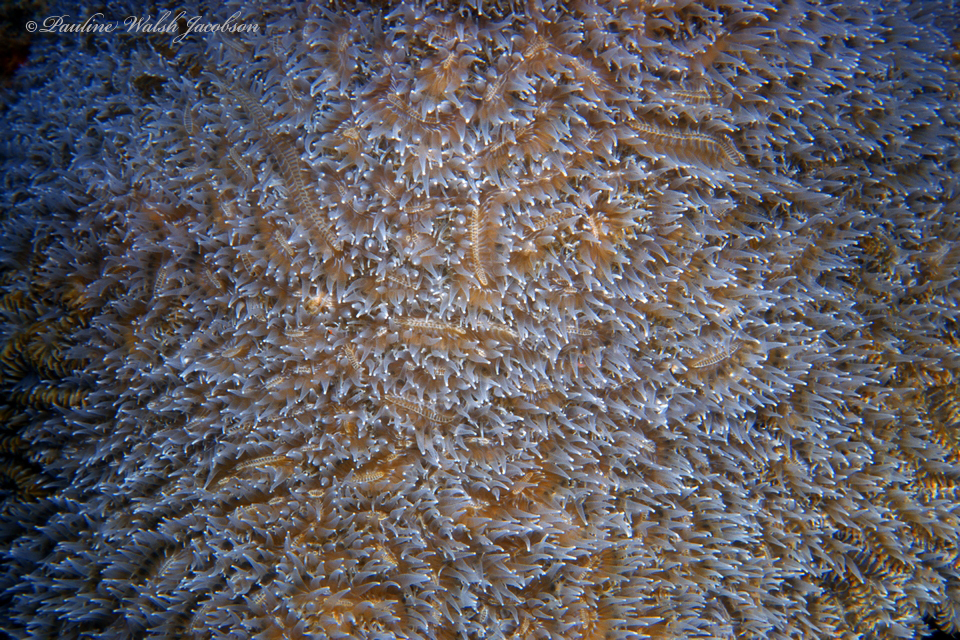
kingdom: Animalia
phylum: Cnidaria
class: Anthozoa
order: Scleractinia
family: Meandrinidae
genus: Dendrogyra
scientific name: Dendrogyra cylindrus
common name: Pillar coral
